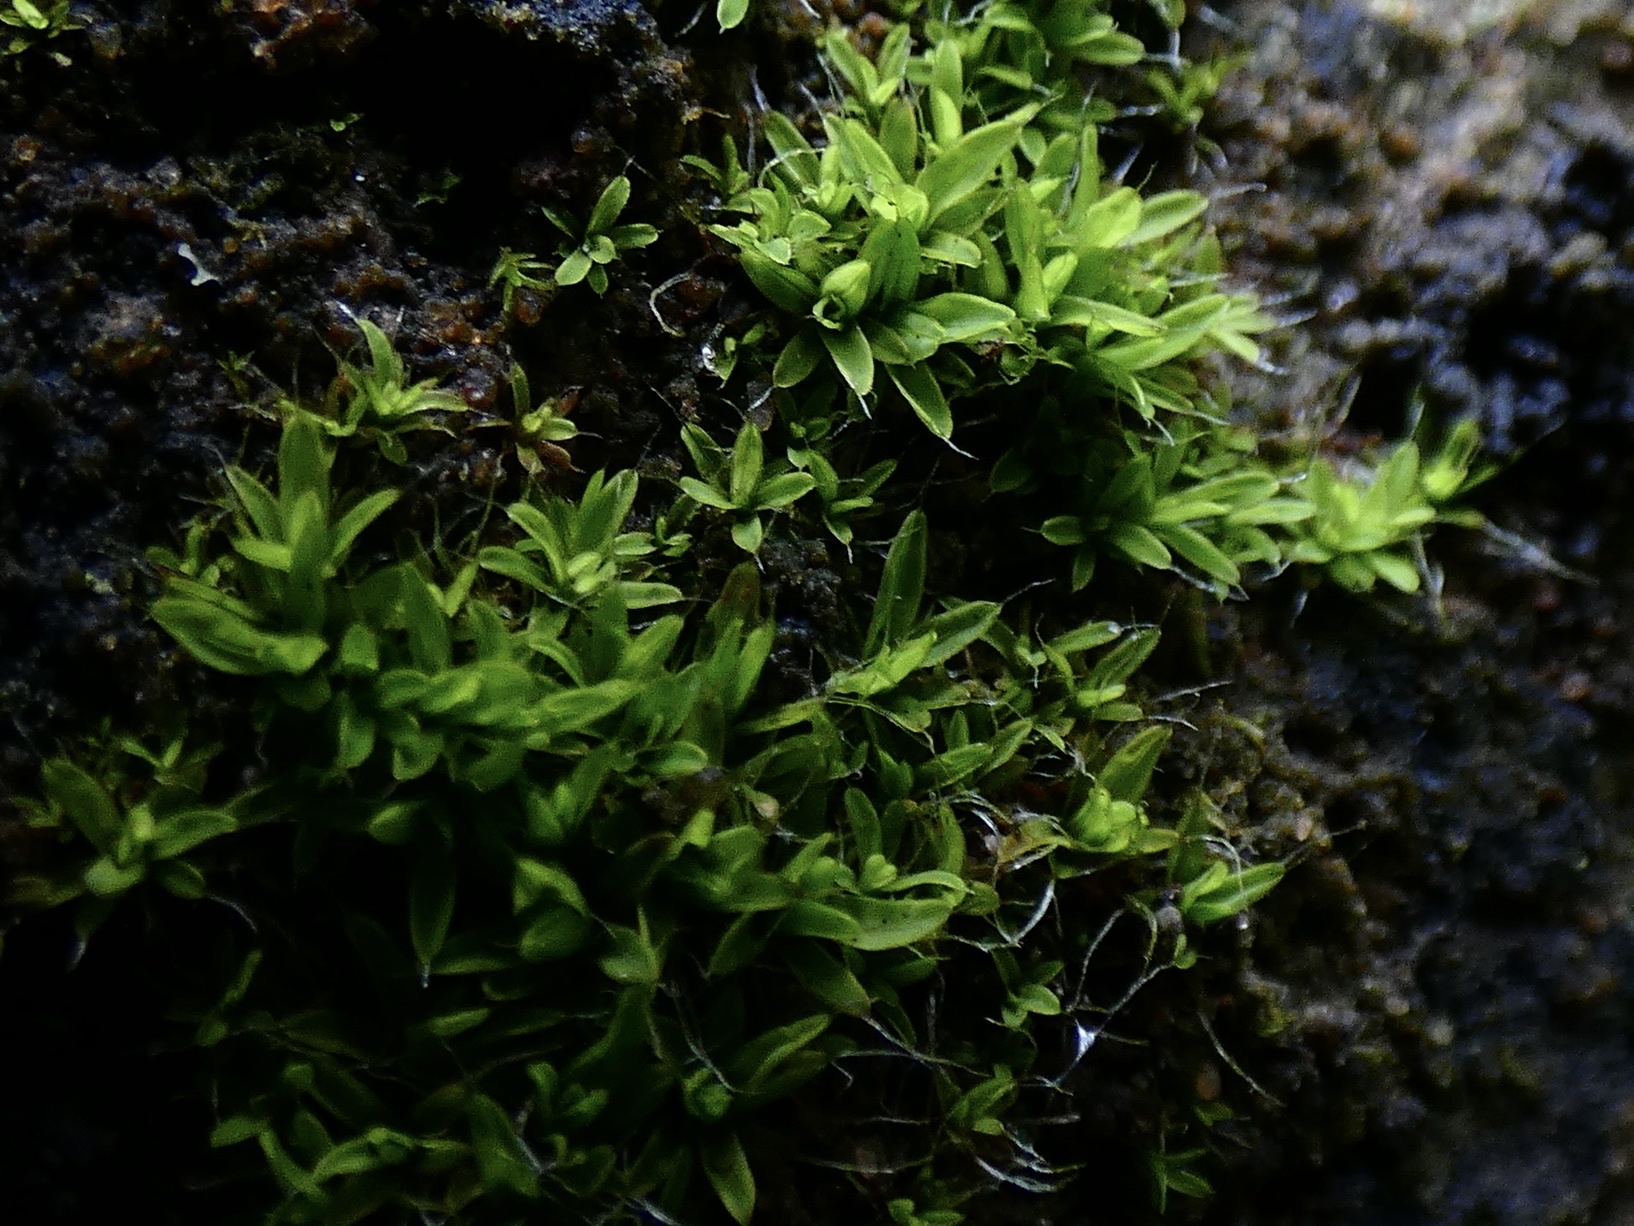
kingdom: Plantae
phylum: Bryophyta
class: Bryopsida
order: Pottiales
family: Pottiaceae
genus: Tortula
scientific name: Tortula muralis
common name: Wall screw-moss
